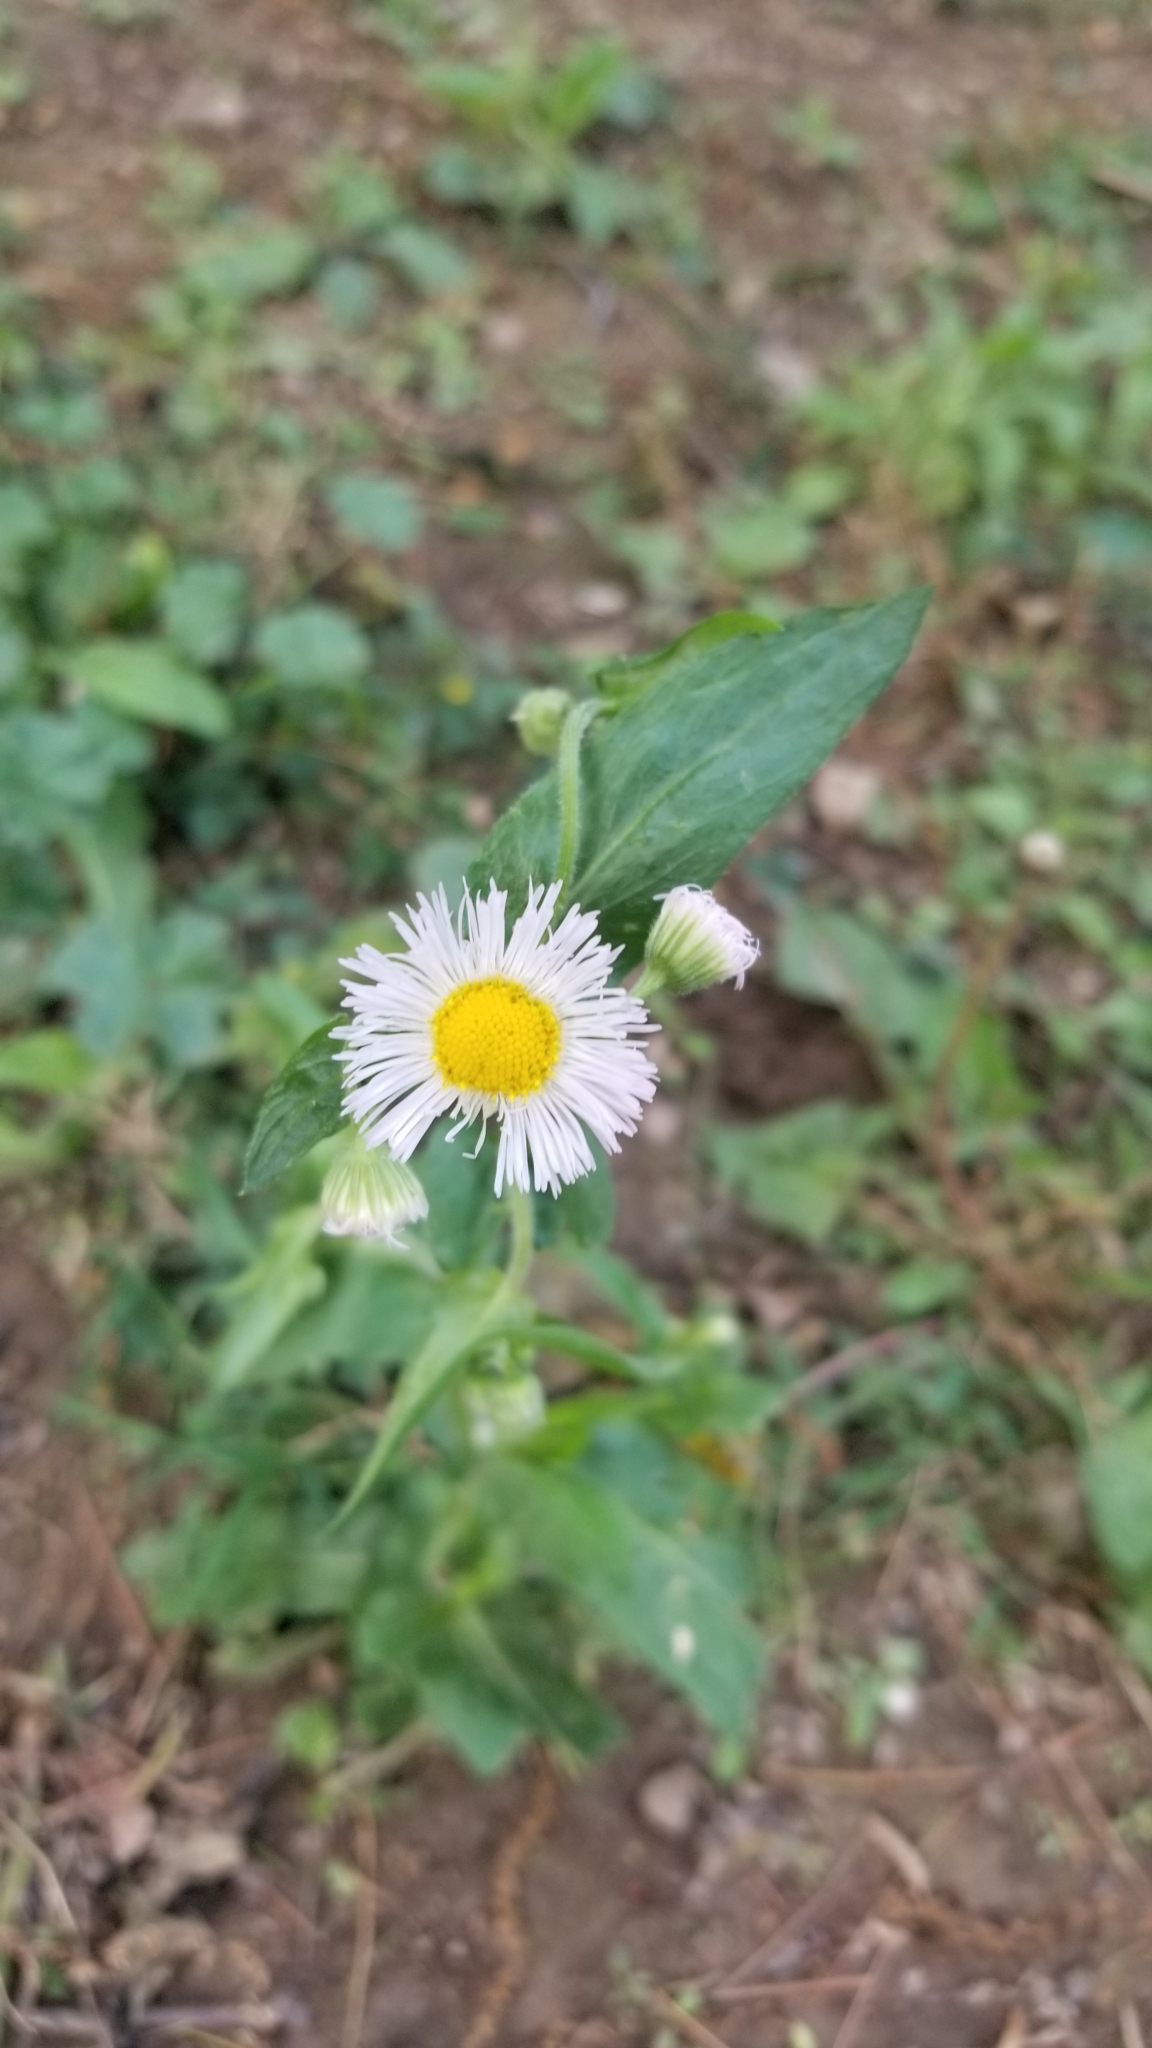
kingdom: Plantae
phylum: Tracheophyta
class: Magnoliopsida
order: Asterales
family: Asteraceae
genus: Erigeron
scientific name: Erigeron philadelphicus
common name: Robin's-plantain
